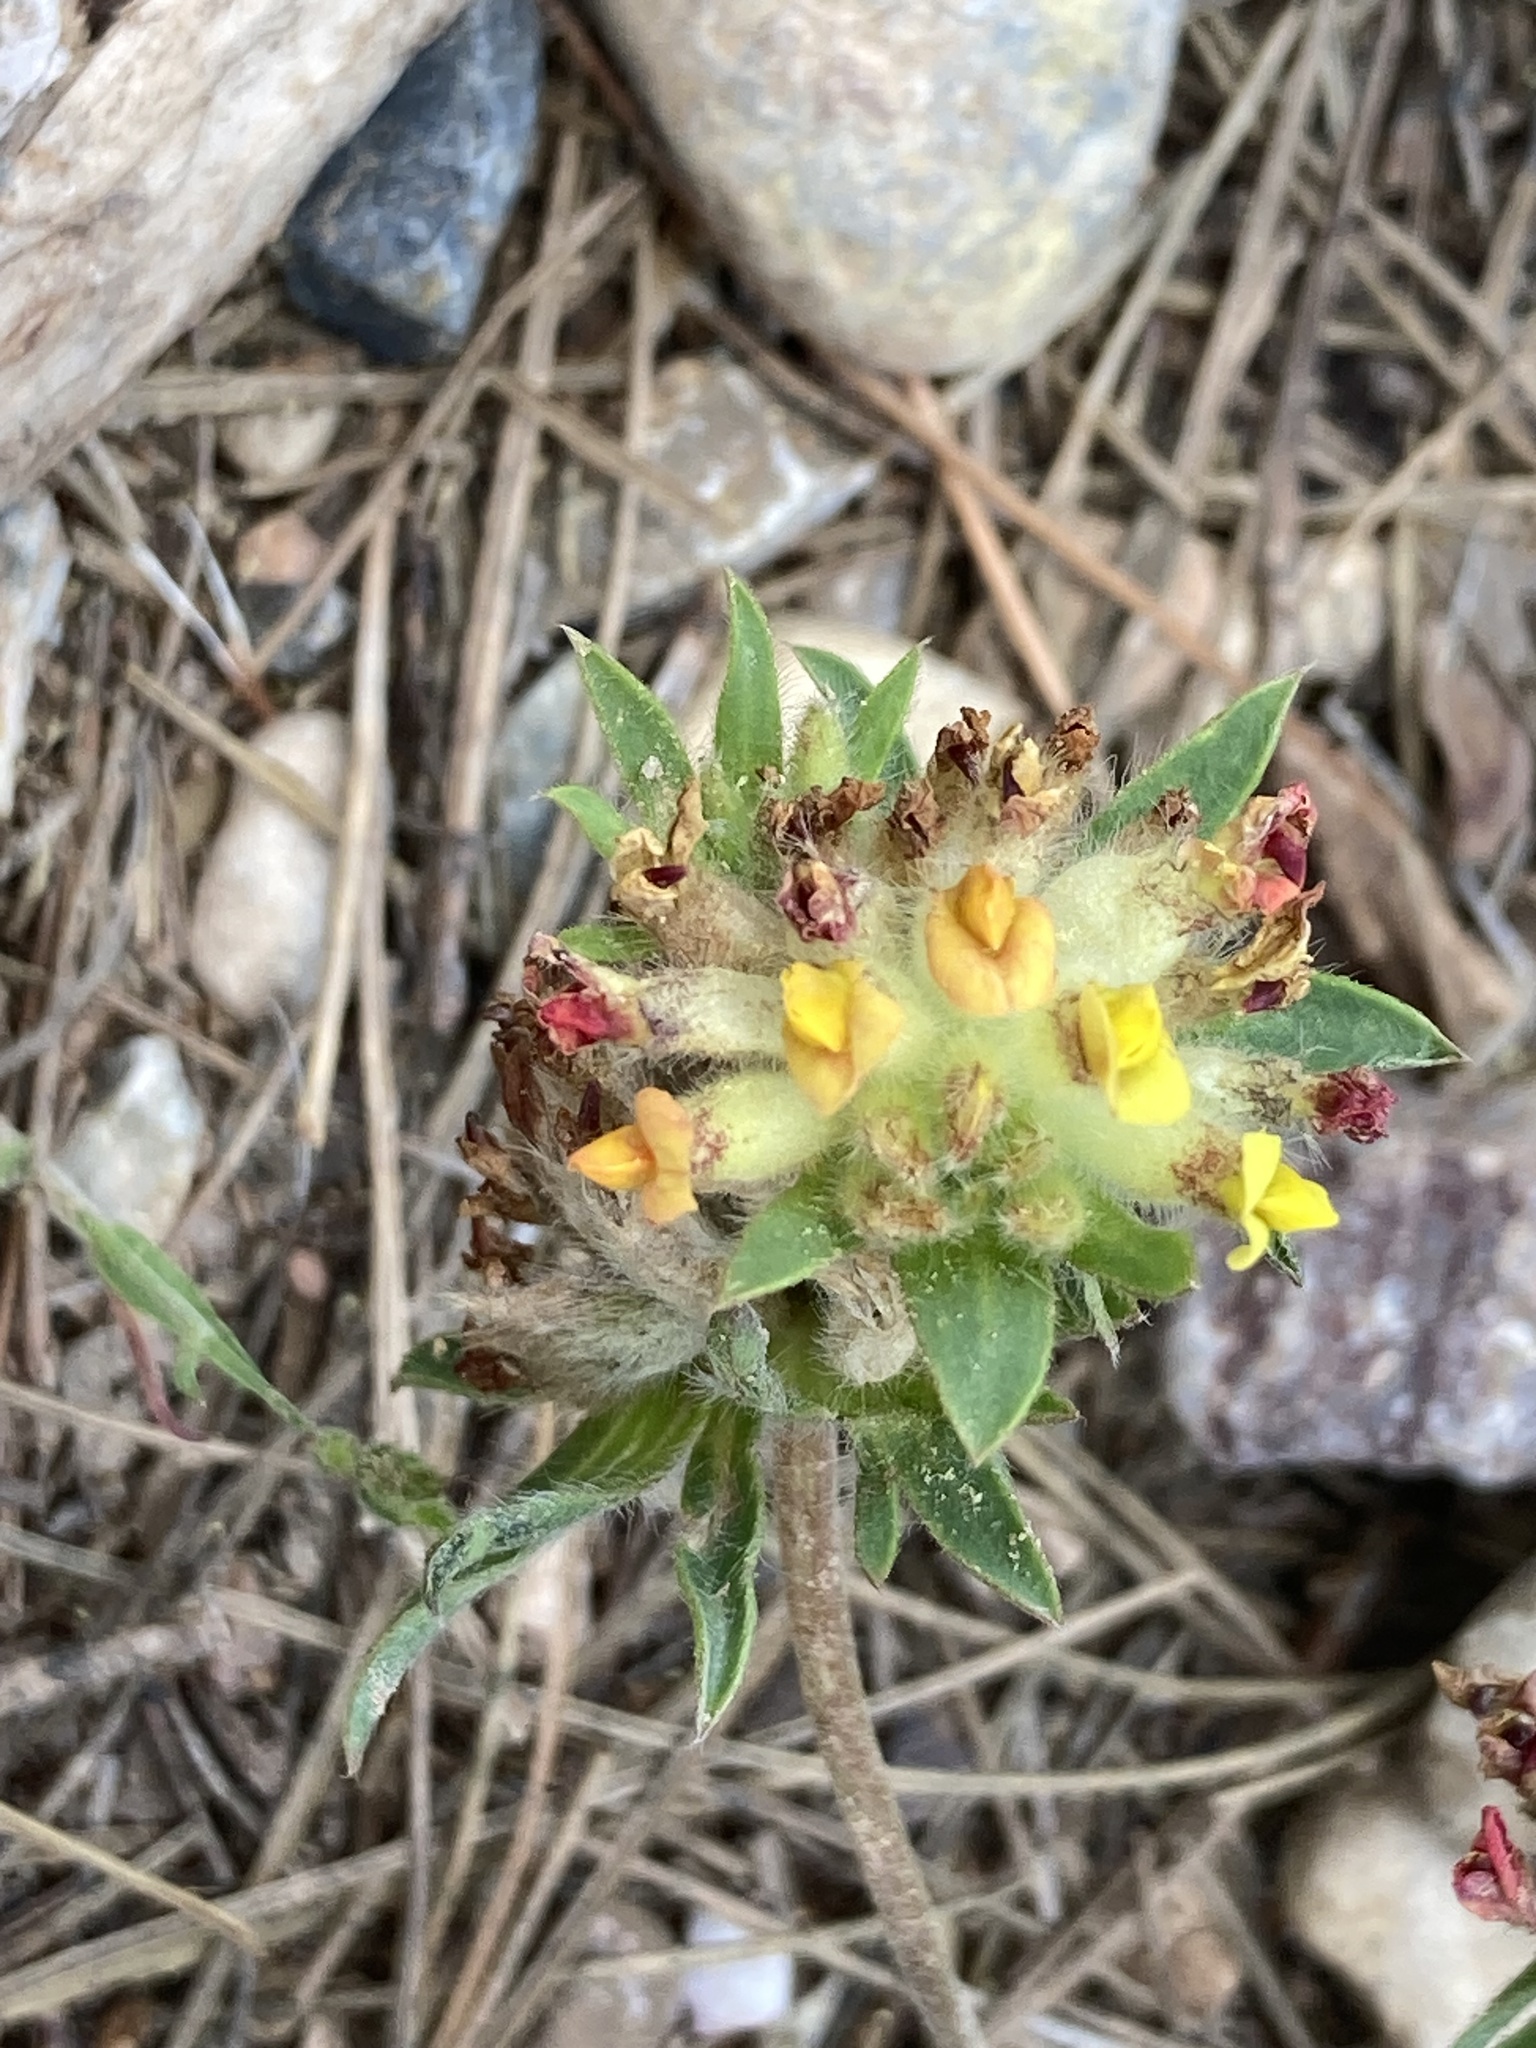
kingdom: Plantae
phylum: Tracheophyta
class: Magnoliopsida
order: Fabales
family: Fabaceae
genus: Anthyllis
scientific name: Anthyllis vulneraria
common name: Kidney vetch
